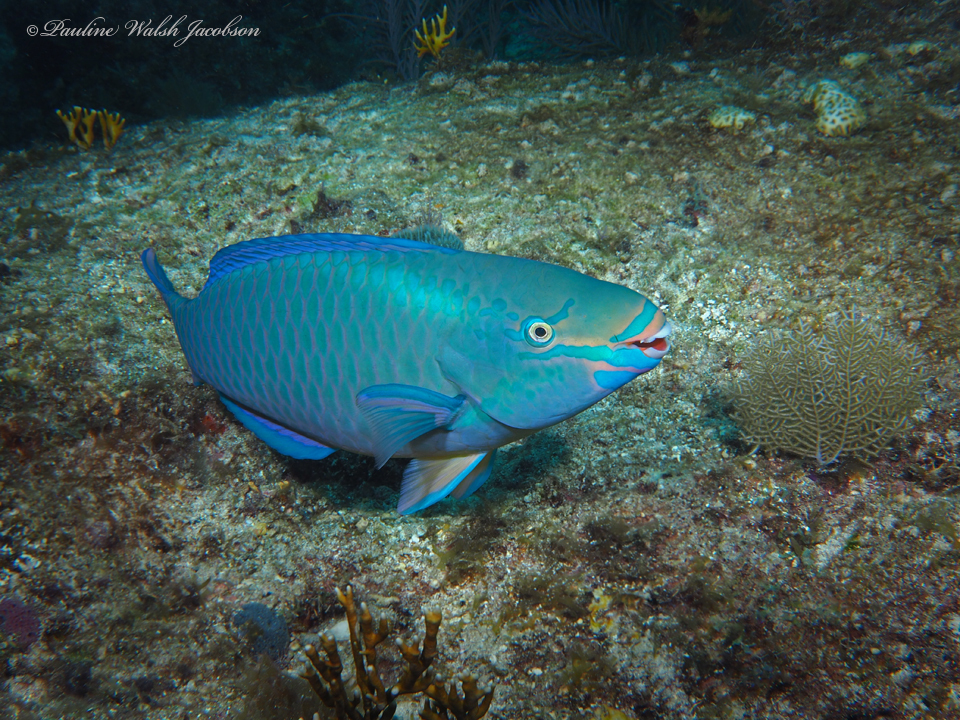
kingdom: Animalia
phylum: Chordata
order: Perciformes
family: Scaridae
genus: Scarus
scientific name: Scarus vetula
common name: Queen parrotfish
